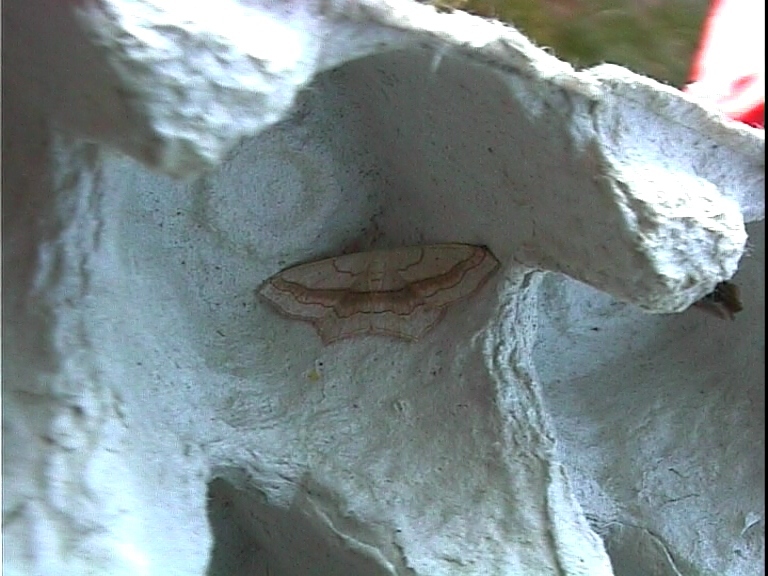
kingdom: Animalia
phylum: Arthropoda
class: Insecta
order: Lepidoptera
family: Geometridae
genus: Scopula
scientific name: Scopula imitaria
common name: Small blood-vein
